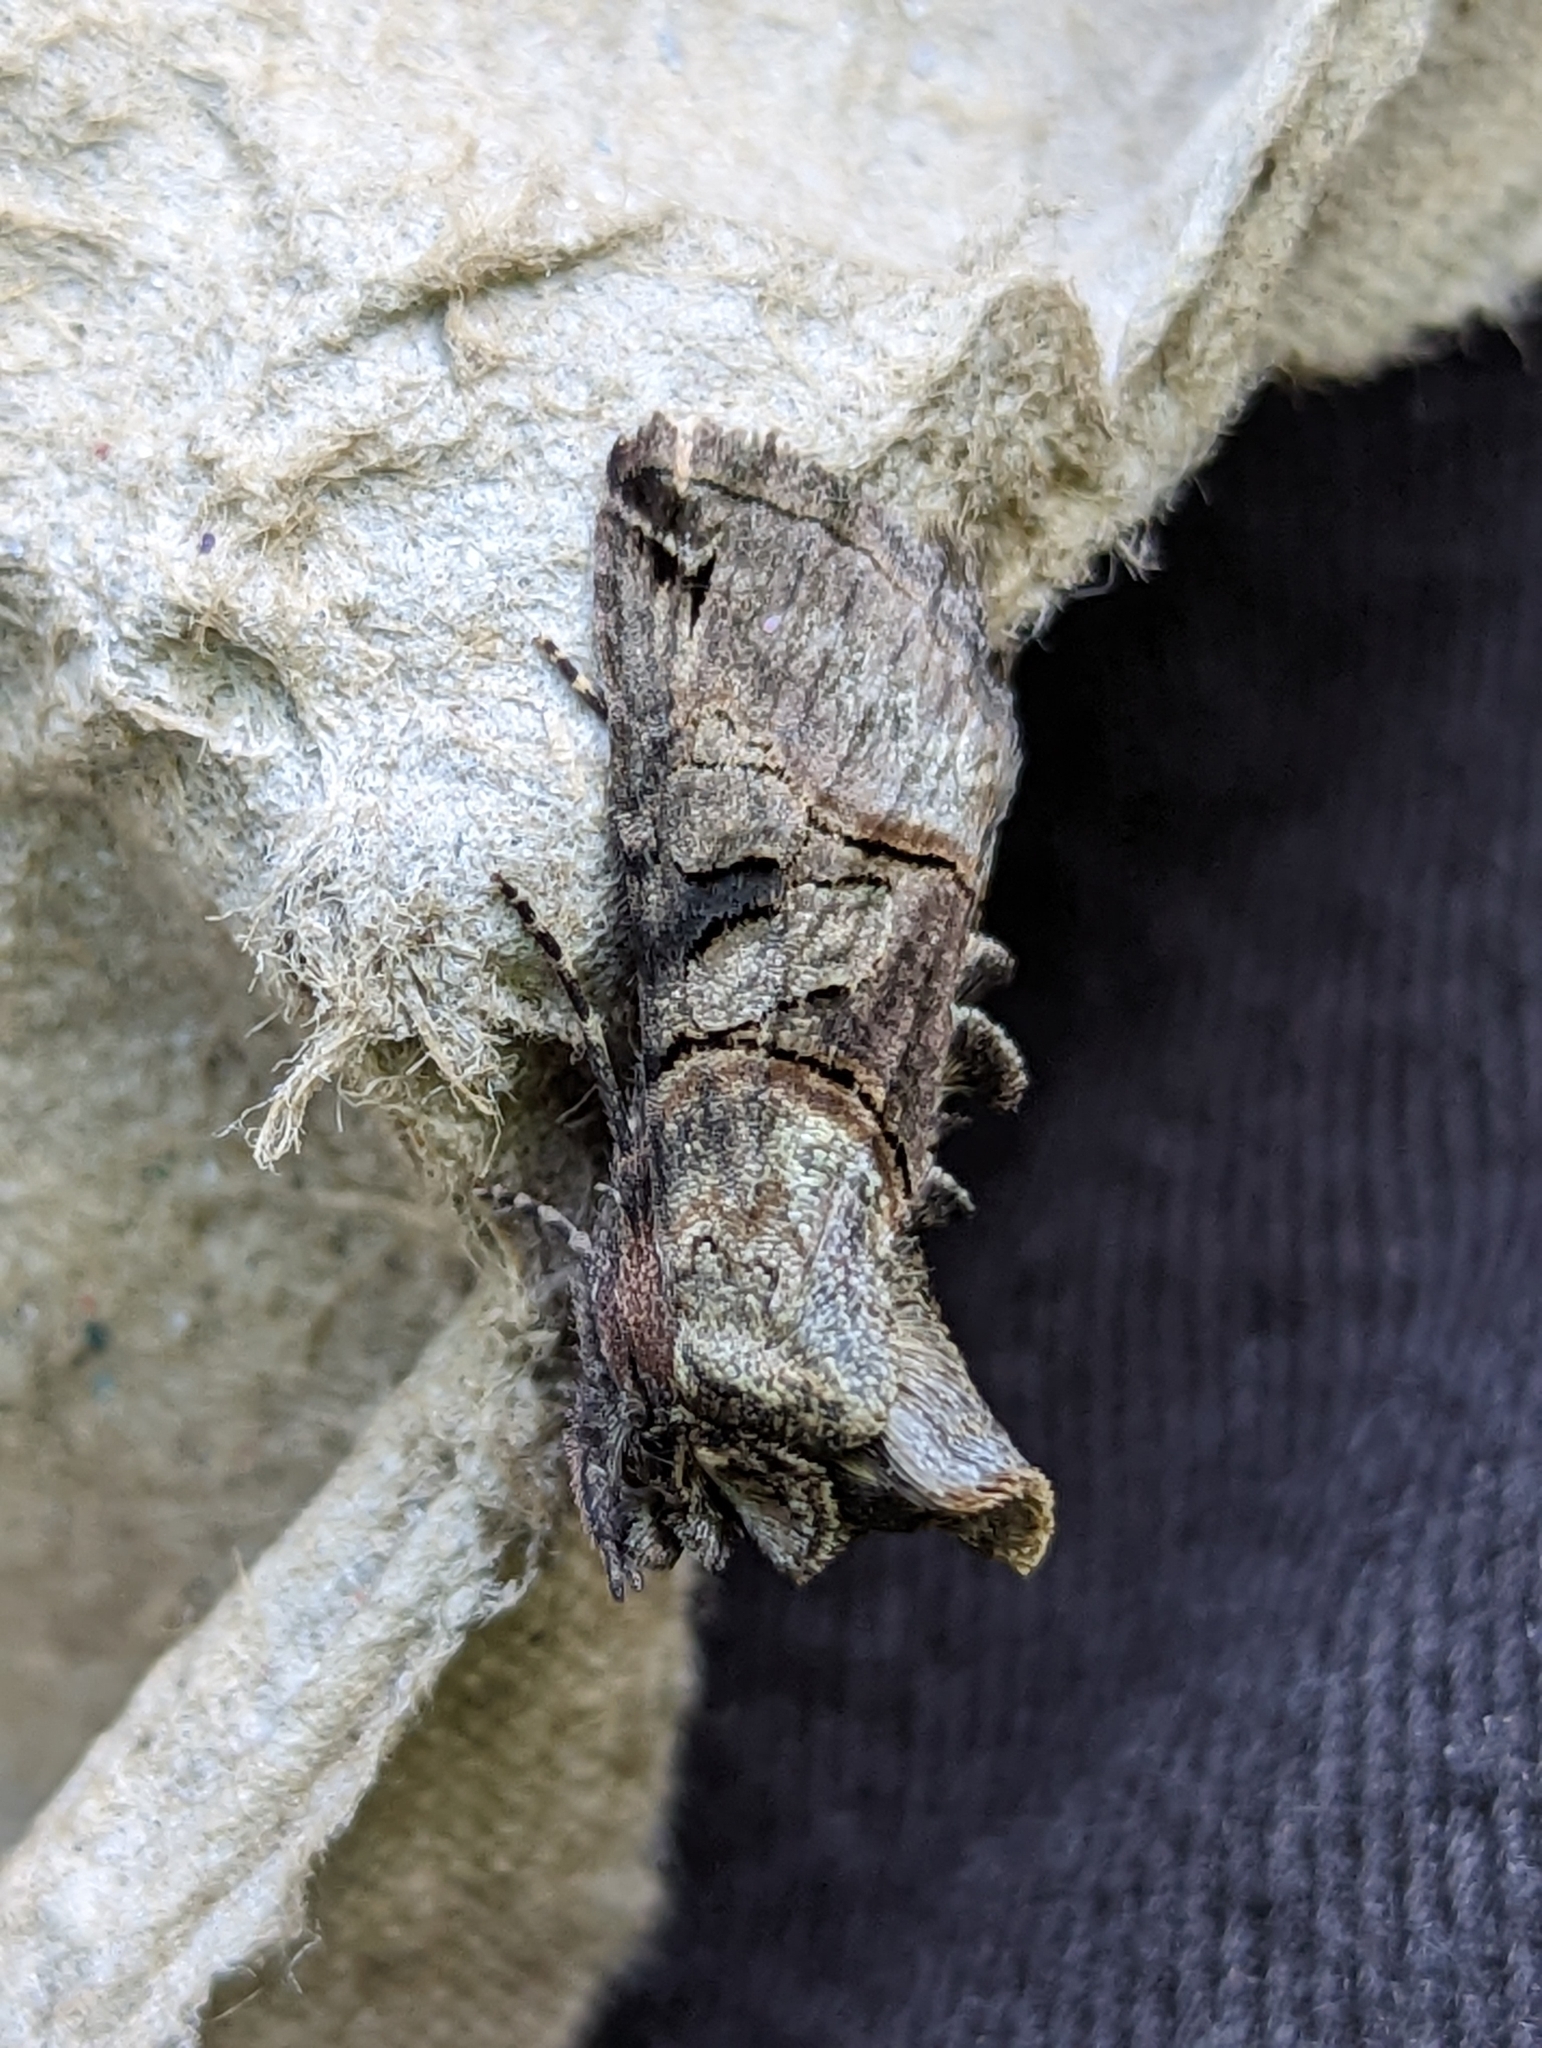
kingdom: Animalia
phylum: Arthropoda
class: Insecta
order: Lepidoptera
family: Noctuidae
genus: Abrostola
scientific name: Abrostola tripartita
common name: Spectacle
